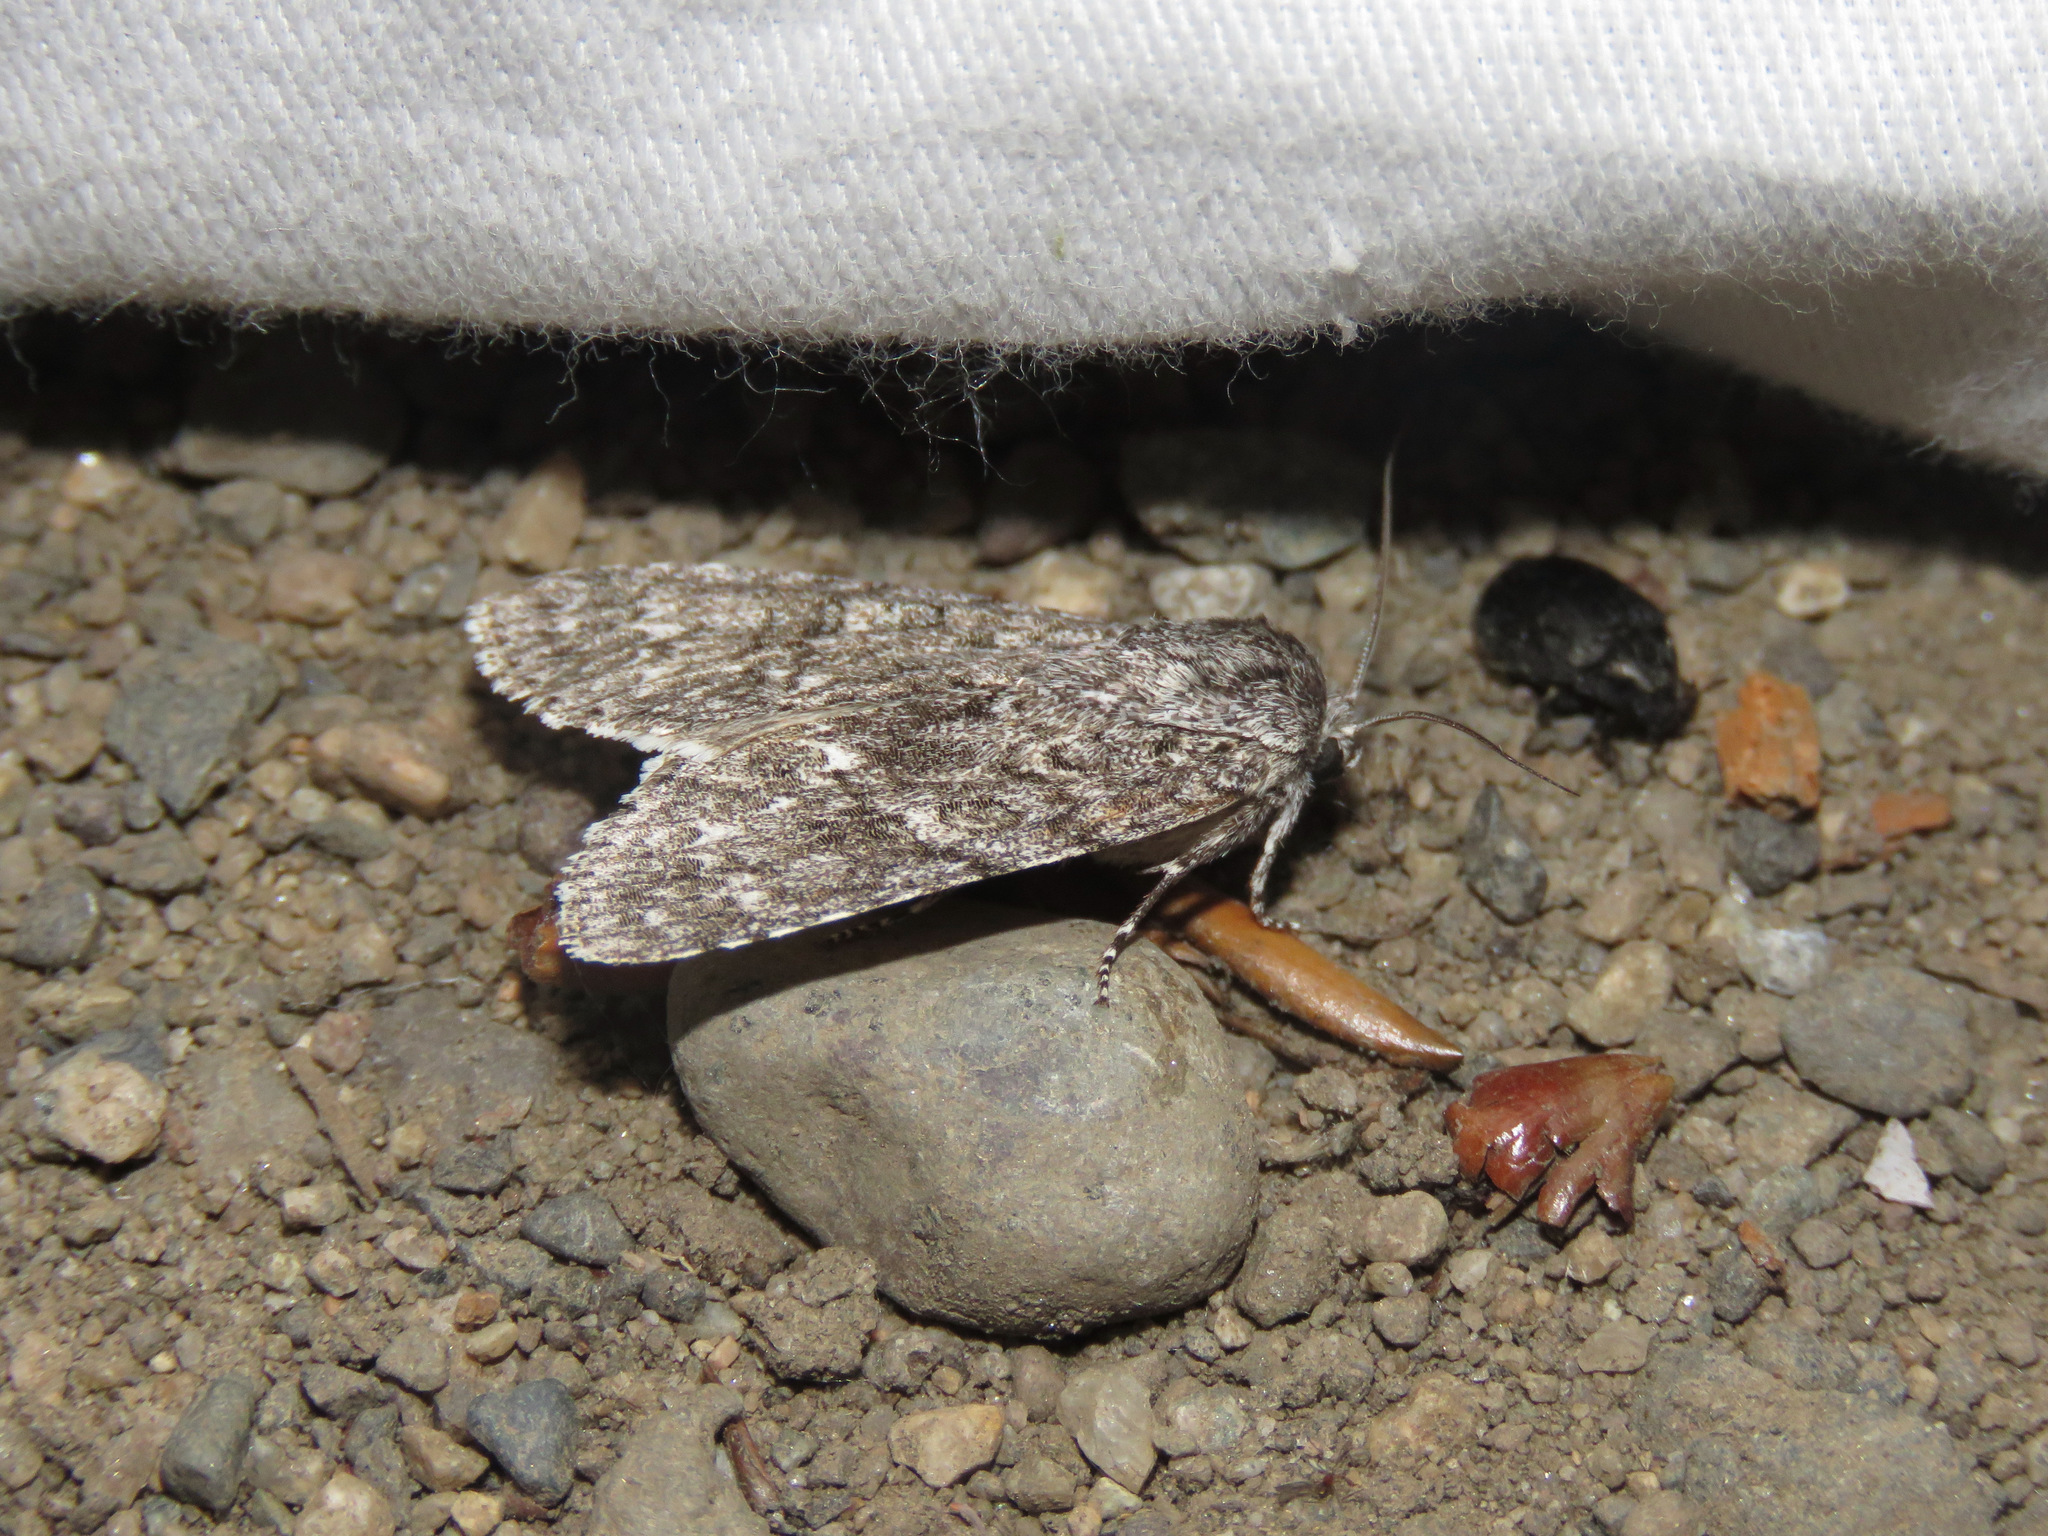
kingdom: Animalia
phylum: Arthropoda
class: Insecta
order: Lepidoptera
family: Noctuidae
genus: Acronicta
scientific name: Acronicta impleta
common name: Powdered dagger
